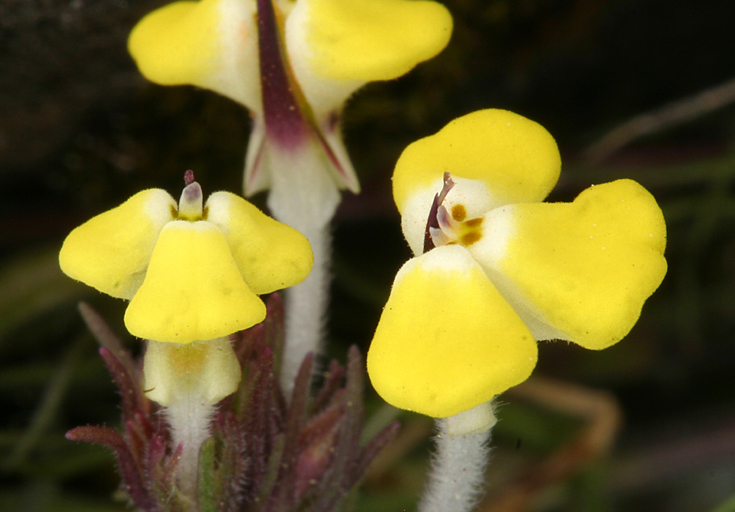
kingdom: Plantae
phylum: Tracheophyta
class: Magnoliopsida
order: Lamiales
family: Orobanchaceae
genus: Triphysaria
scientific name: Triphysaria eriantha
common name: Johnny-tuck
